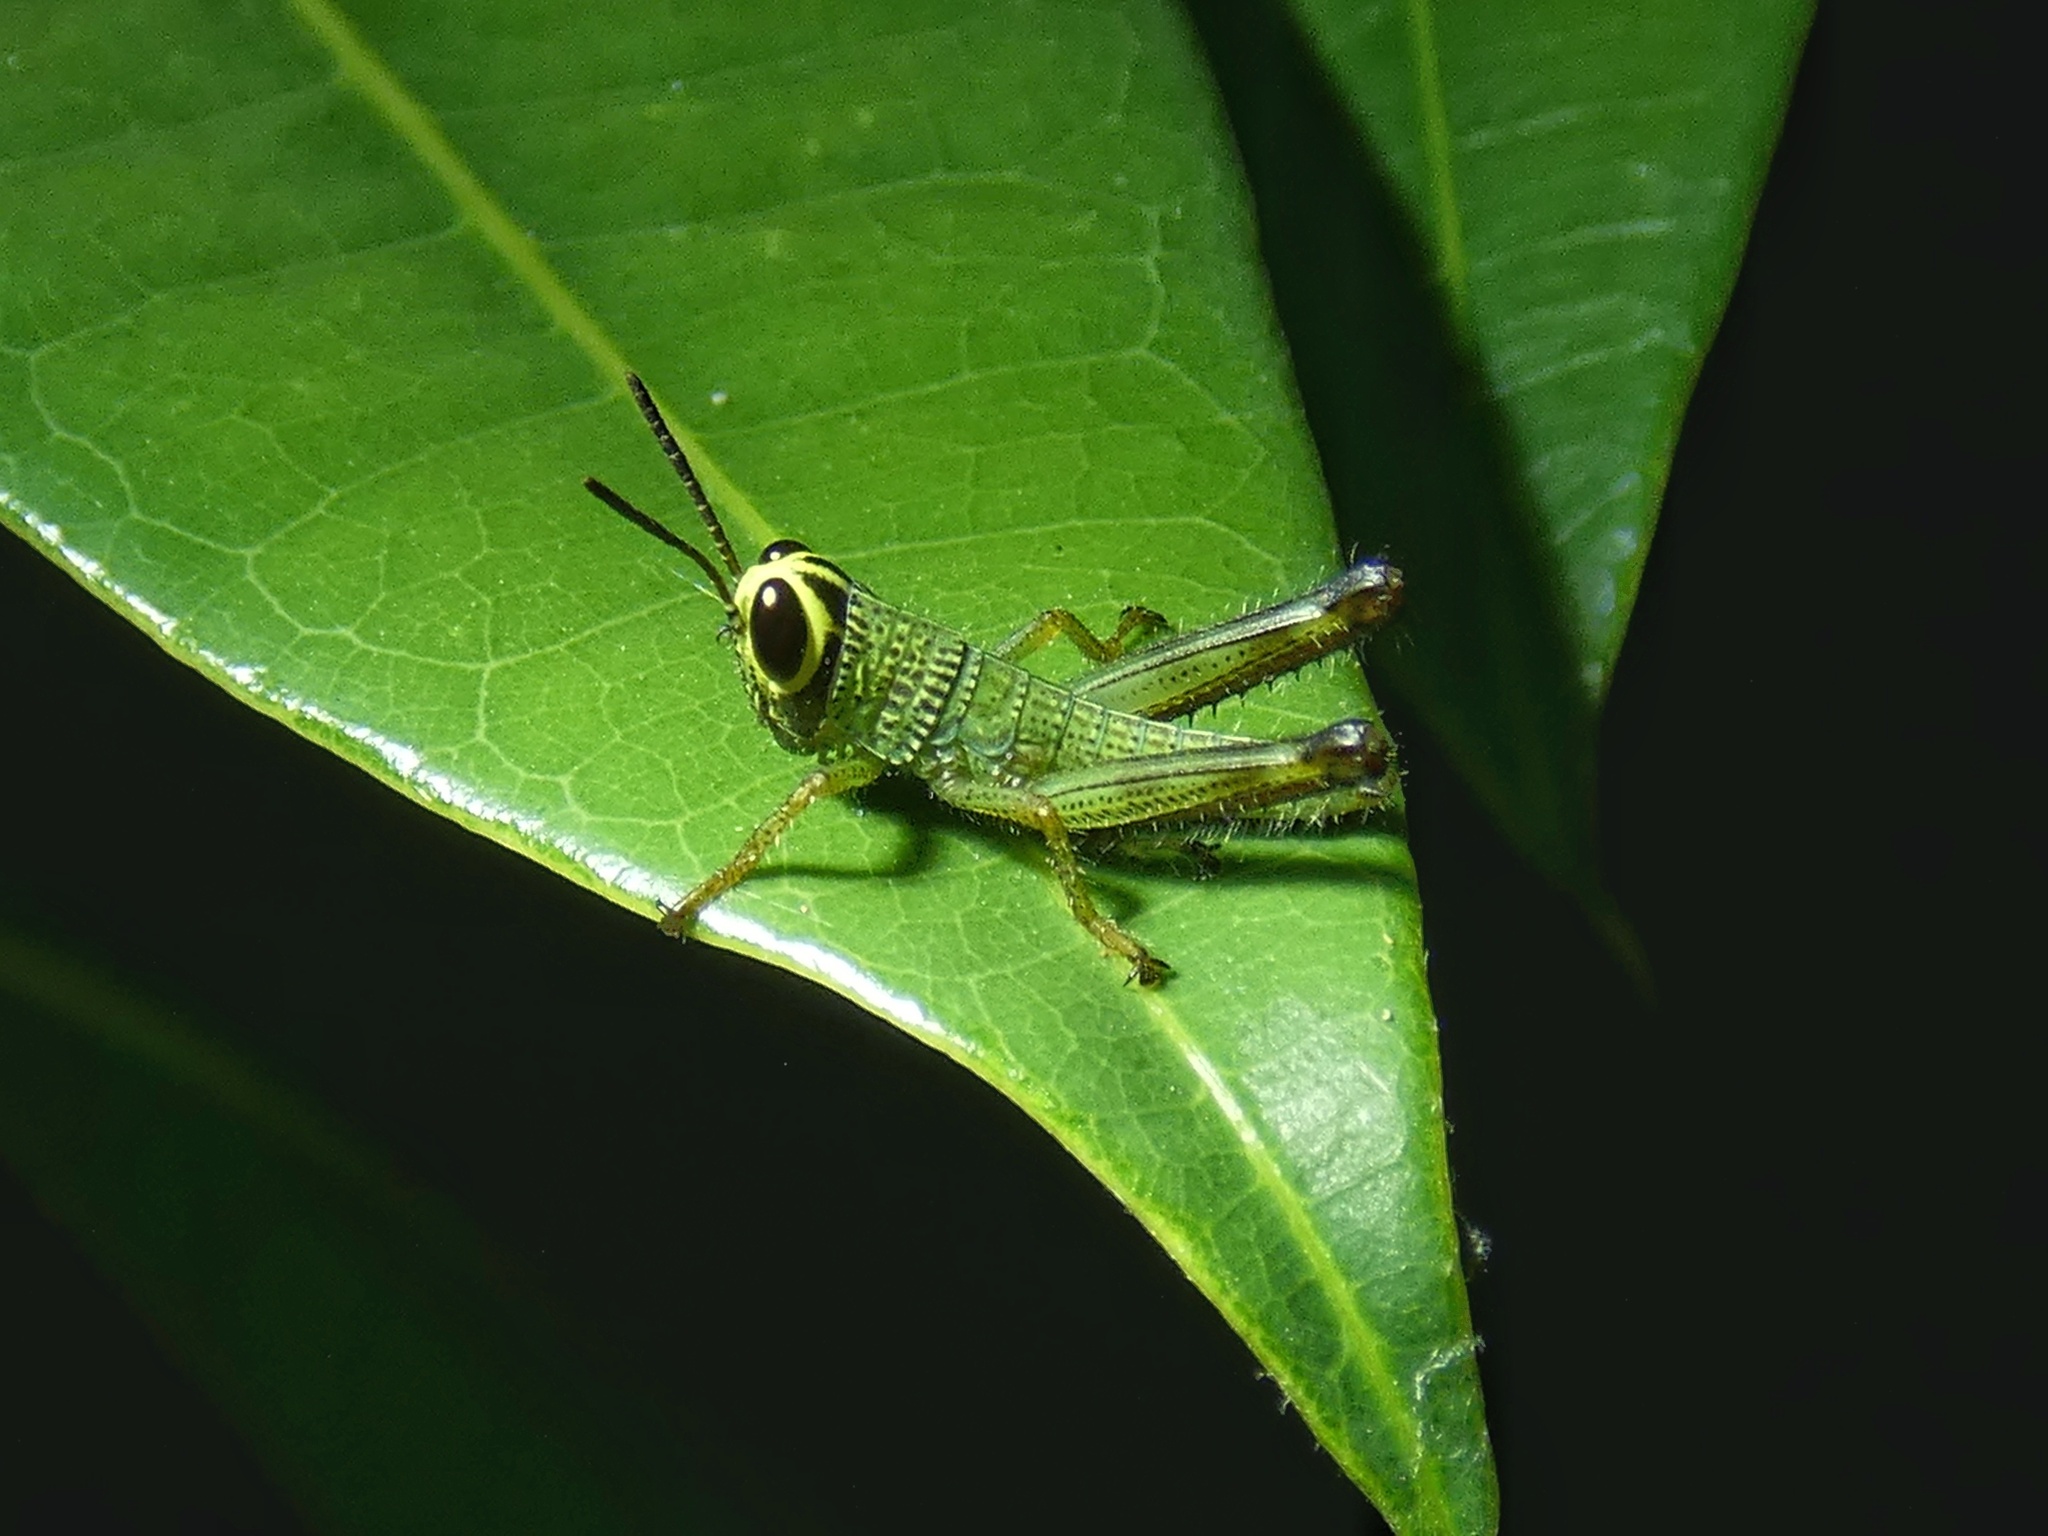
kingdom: Animalia
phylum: Arthropoda
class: Insecta
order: Orthoptera
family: Acrididae
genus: Melicodes
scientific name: Melicodes tenebrosus
